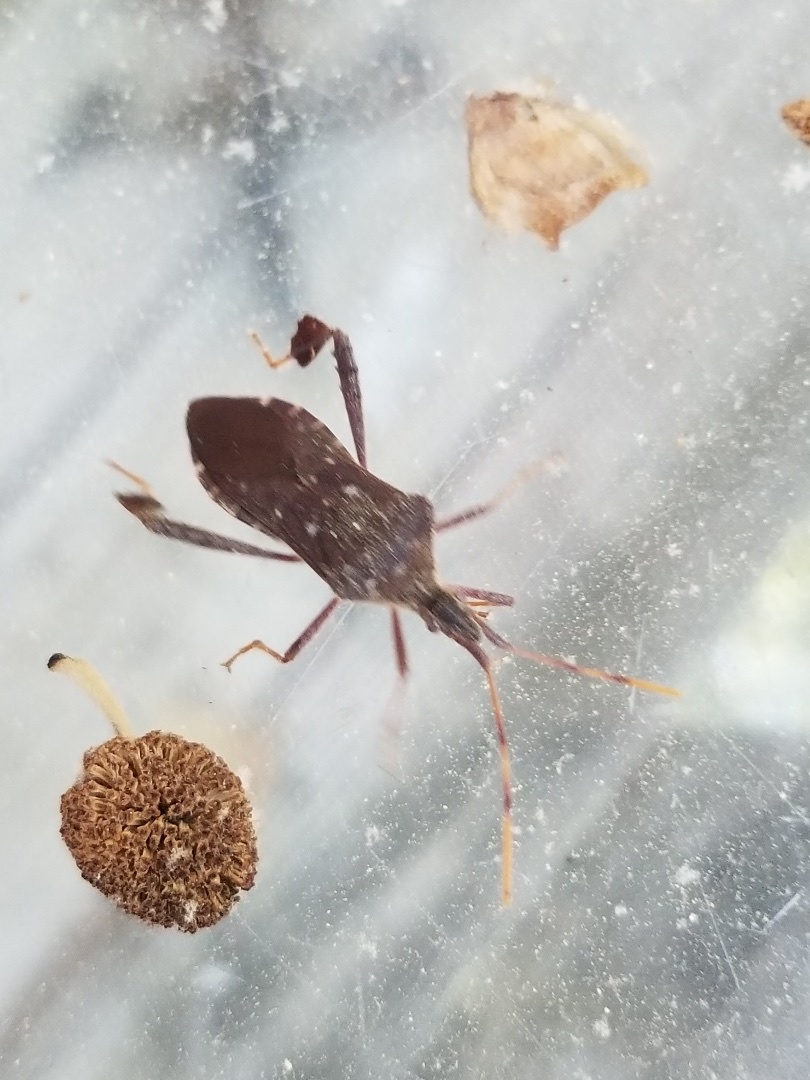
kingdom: Animalia
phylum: Arthropoda
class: Insecta
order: Hemiptera
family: Coreidae
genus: Leptoglossus
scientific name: Leptoglossus oppositus
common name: Northern leaf-footed bug
